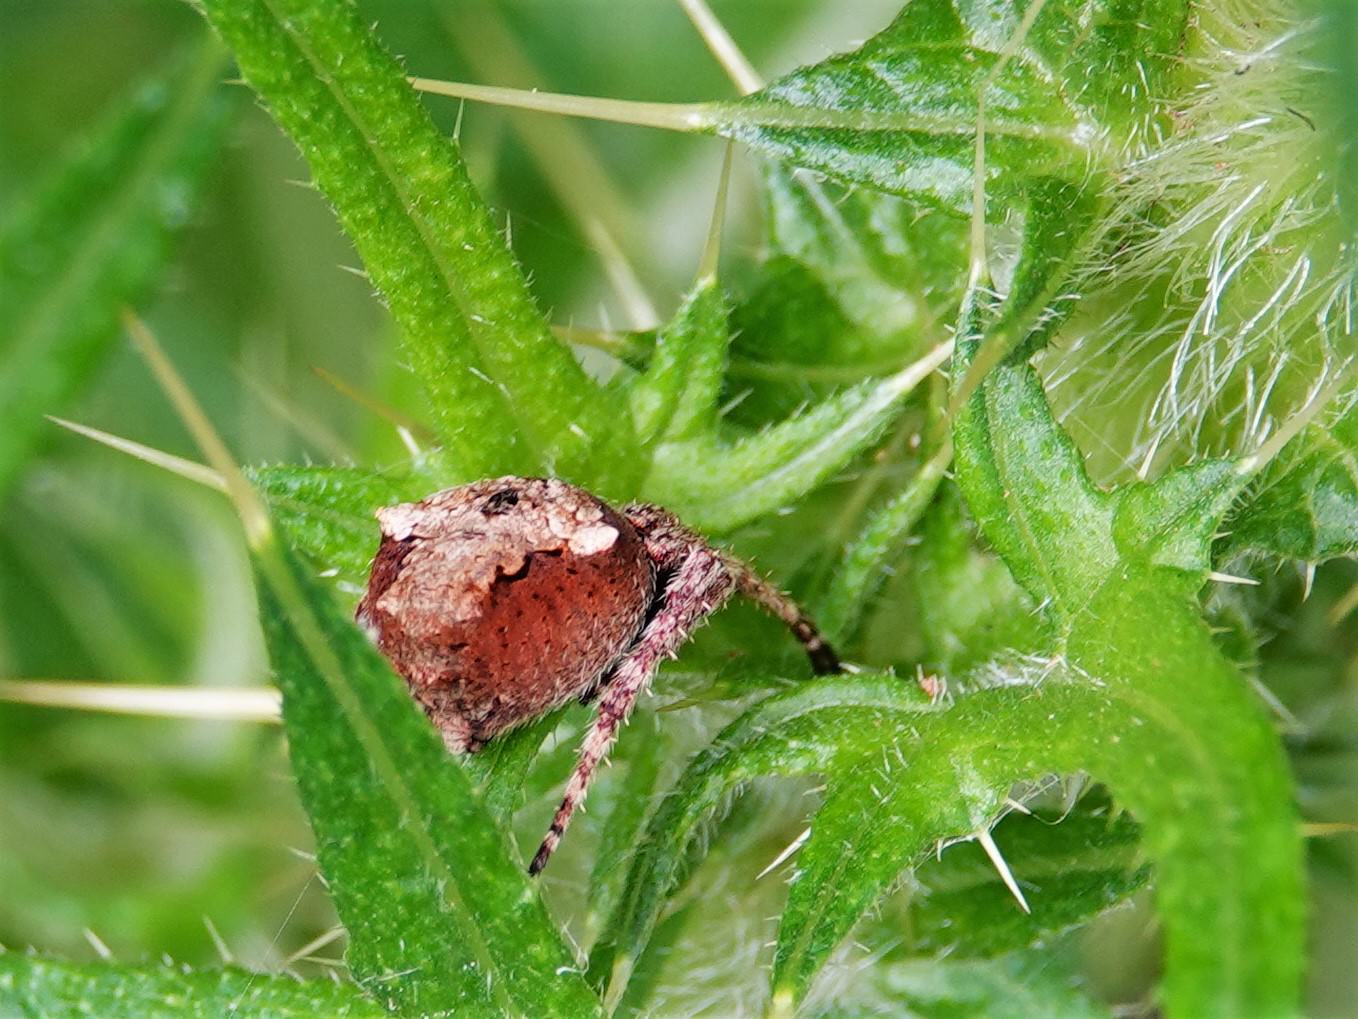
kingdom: Animalia
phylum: Arthropoda
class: Arachnida
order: Araneae
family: Araneidae
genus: Eriophora
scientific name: Eriophora pustulosa
